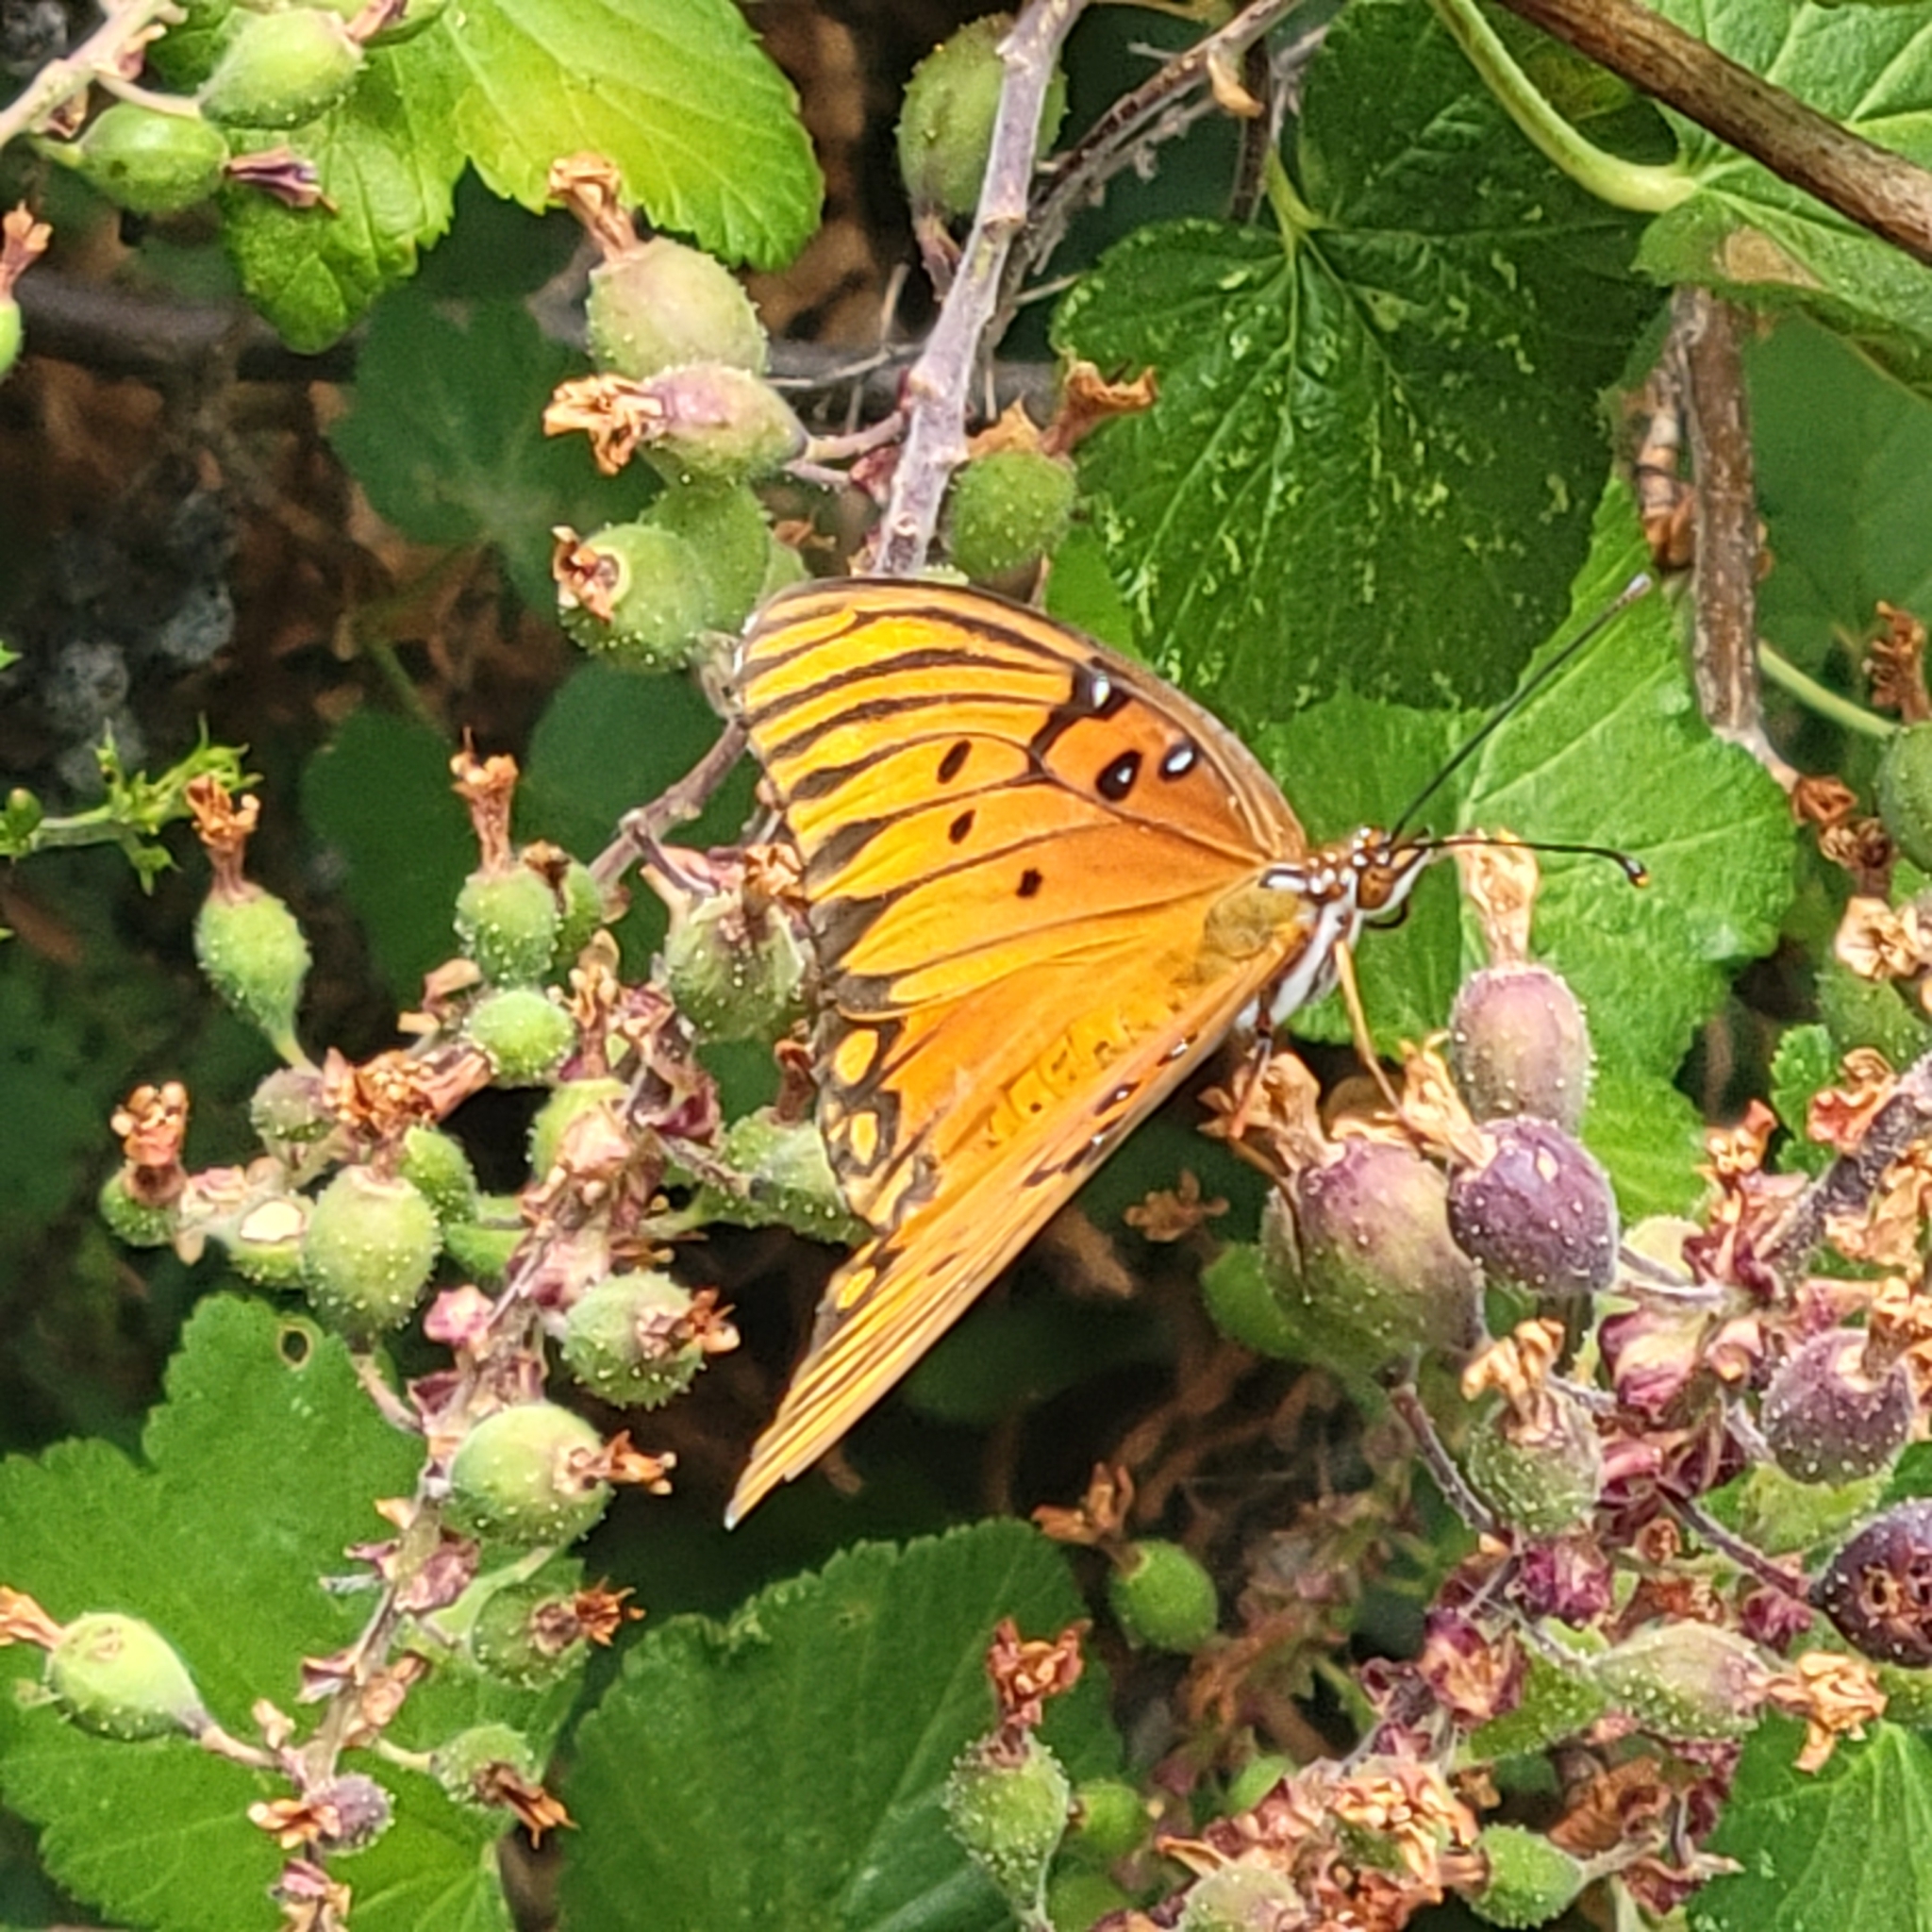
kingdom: Animalia
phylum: Arthropoda
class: Insecta
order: Lepidoptera
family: Nymphalidae
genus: Dione
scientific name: Dione vanillae
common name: Gulf fritillary
